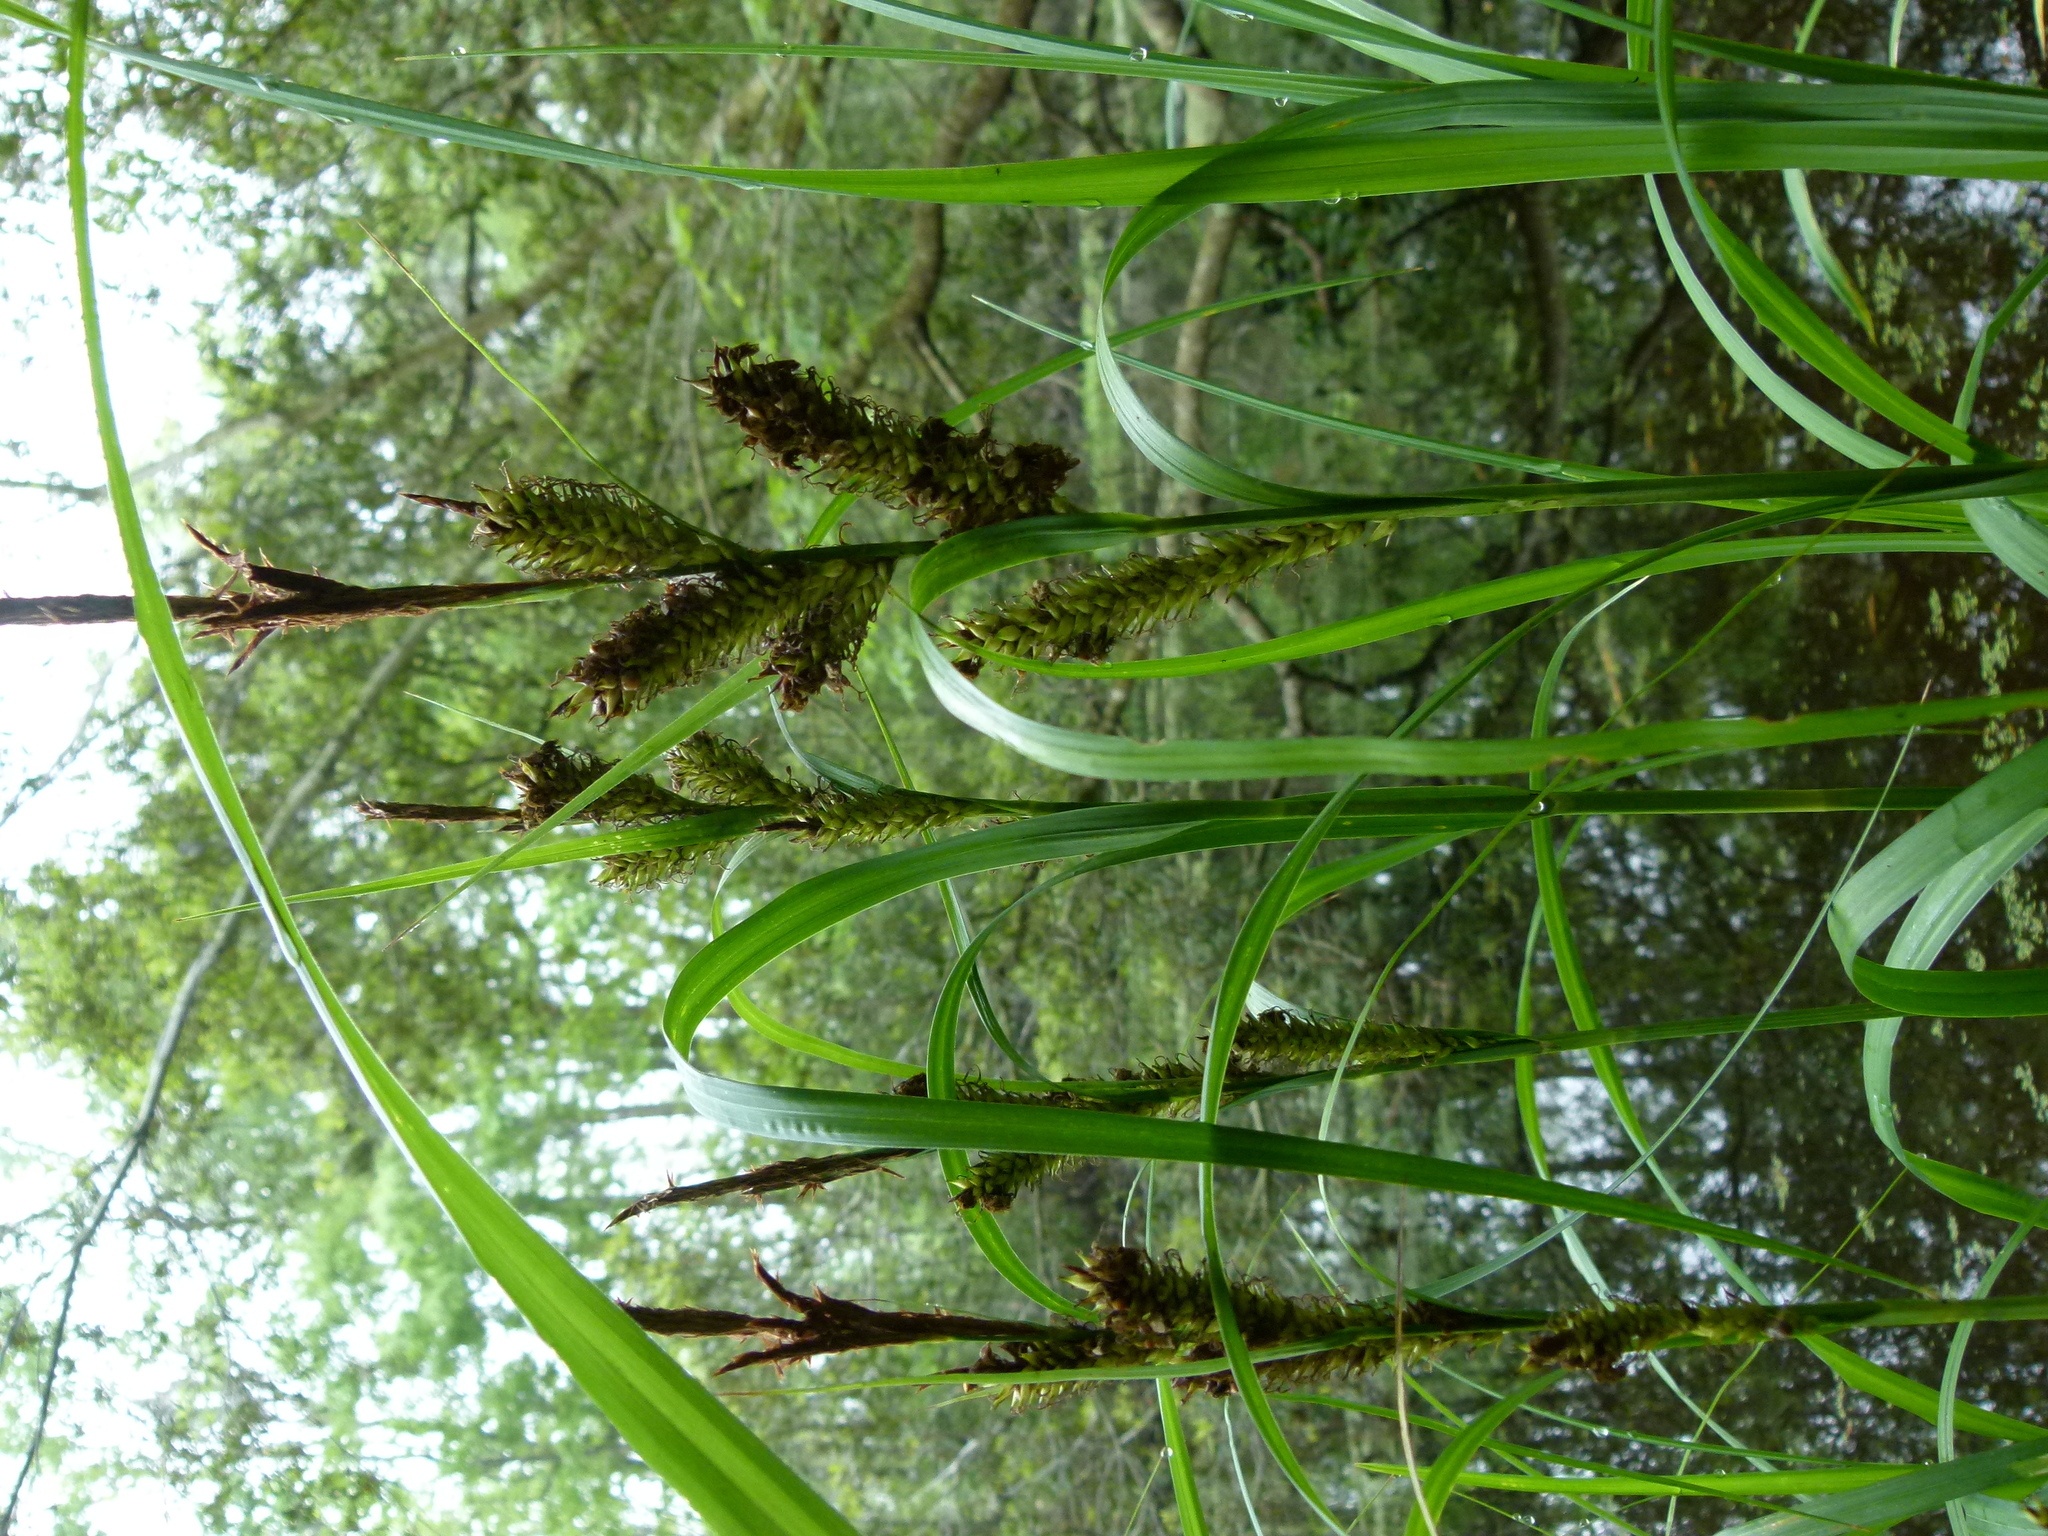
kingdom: Plantae
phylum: Tracheophyta
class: Liliopsida
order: Poales
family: Cyperaceae
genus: Carex
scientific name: Carex hyalinolepis
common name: Shoreline sedge
